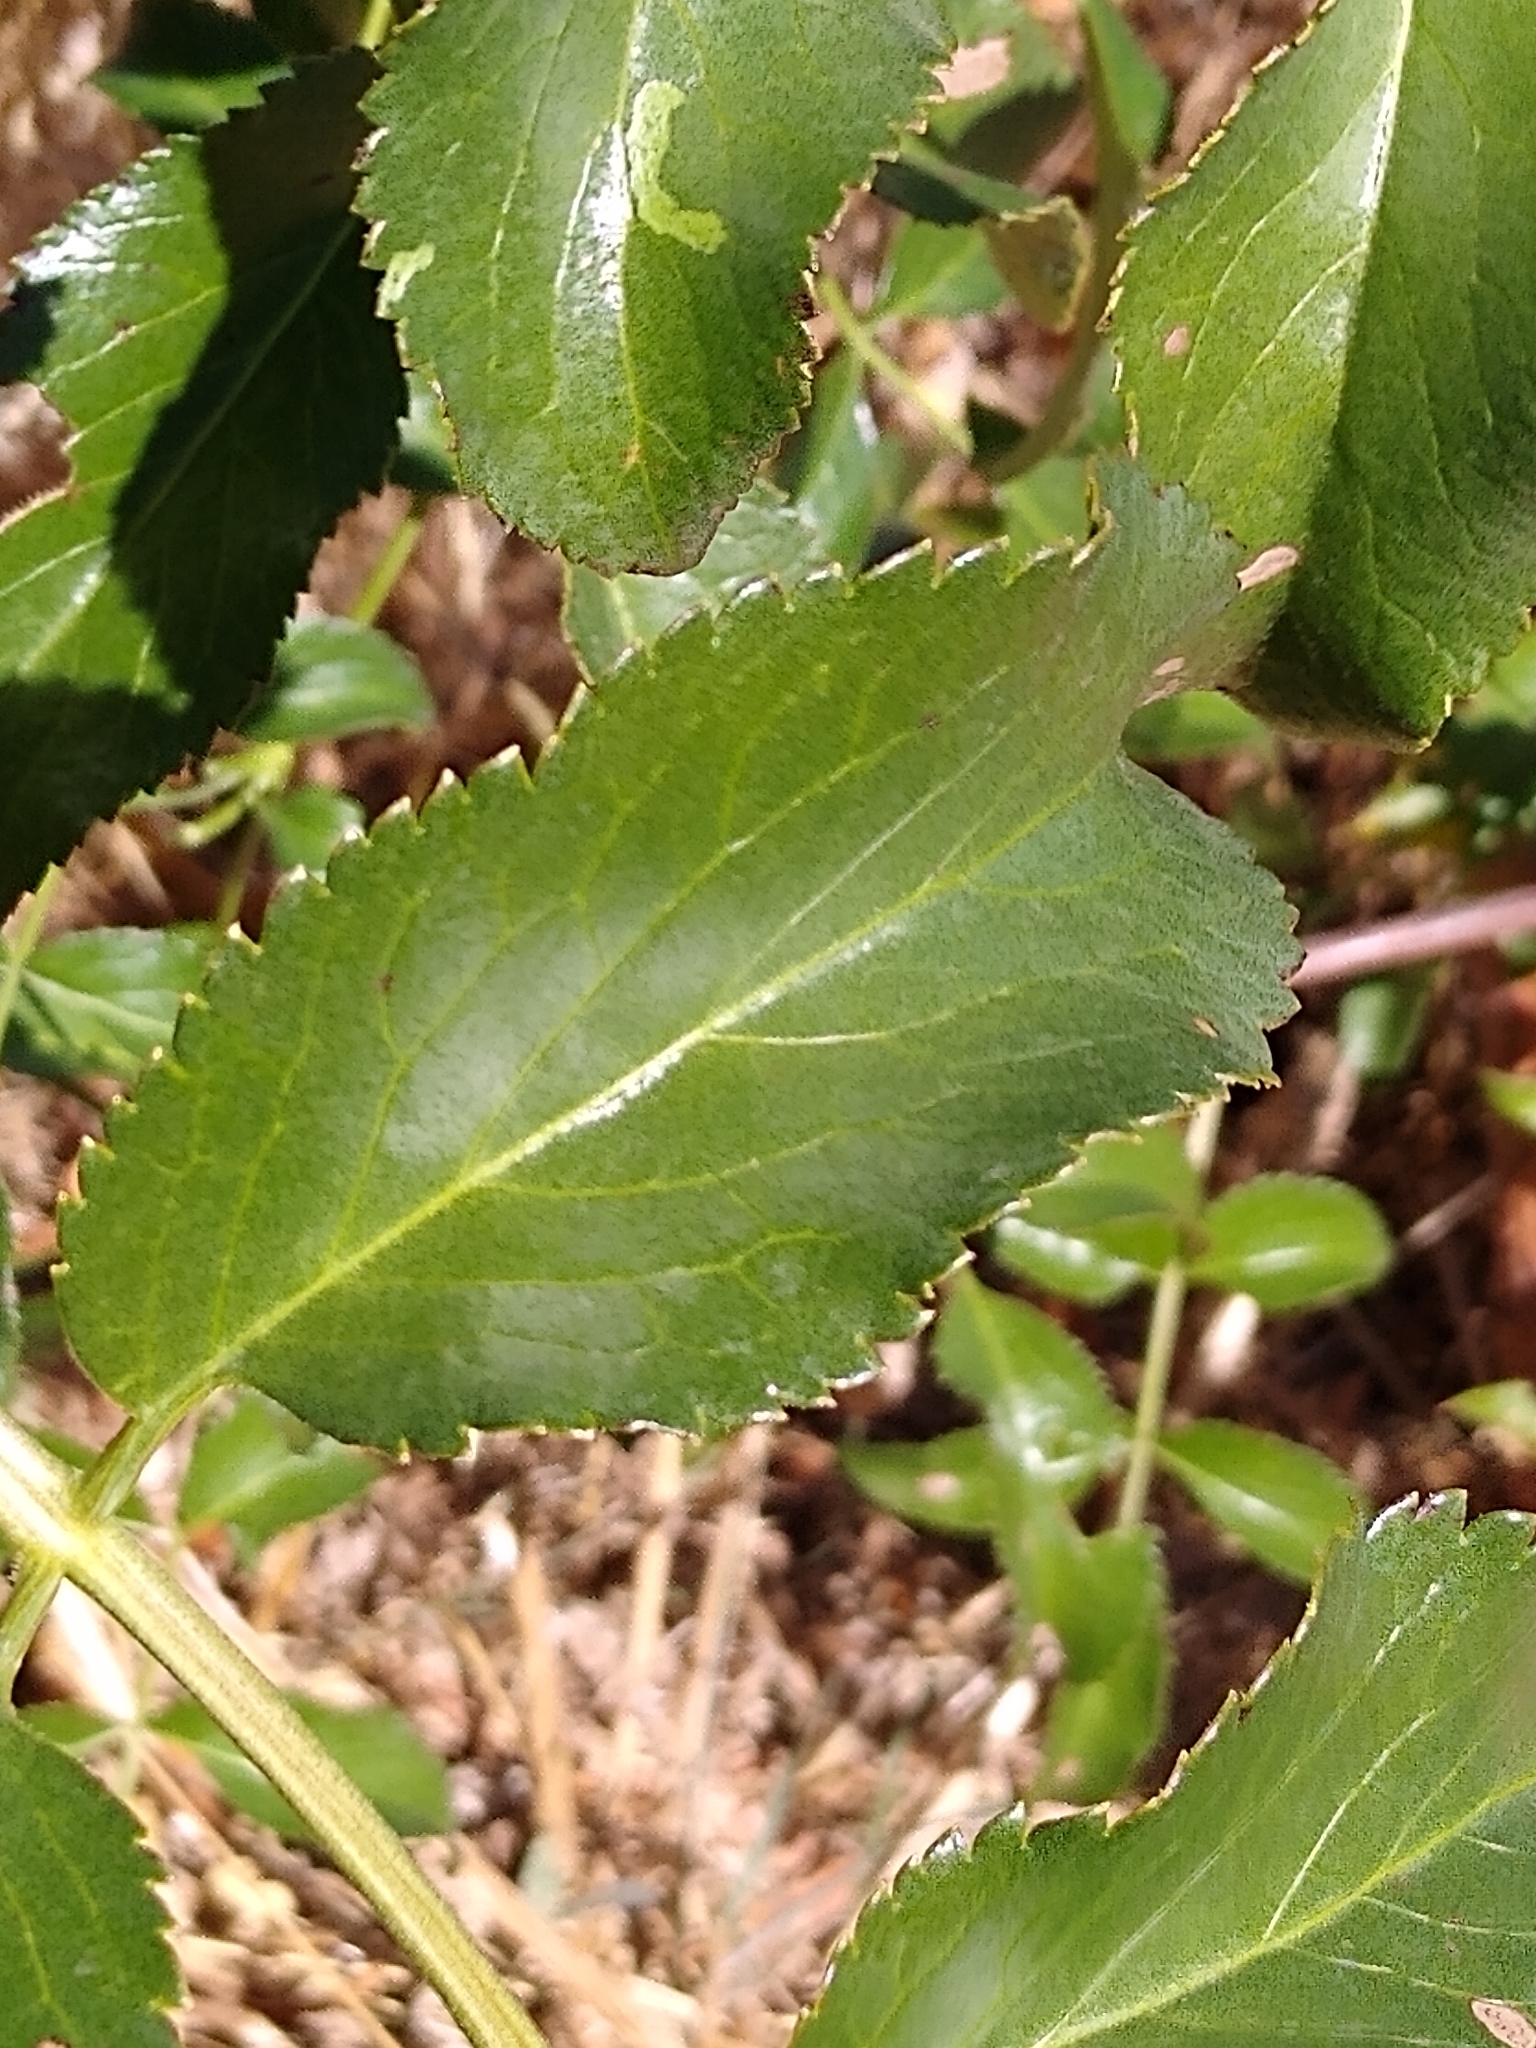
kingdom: Plantae
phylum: Tracheophyta
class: Magnoliopsida
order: Dipsacales
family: Viburnaceae
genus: Sambucus
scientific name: Sambucus cerulea
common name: Blue elder
